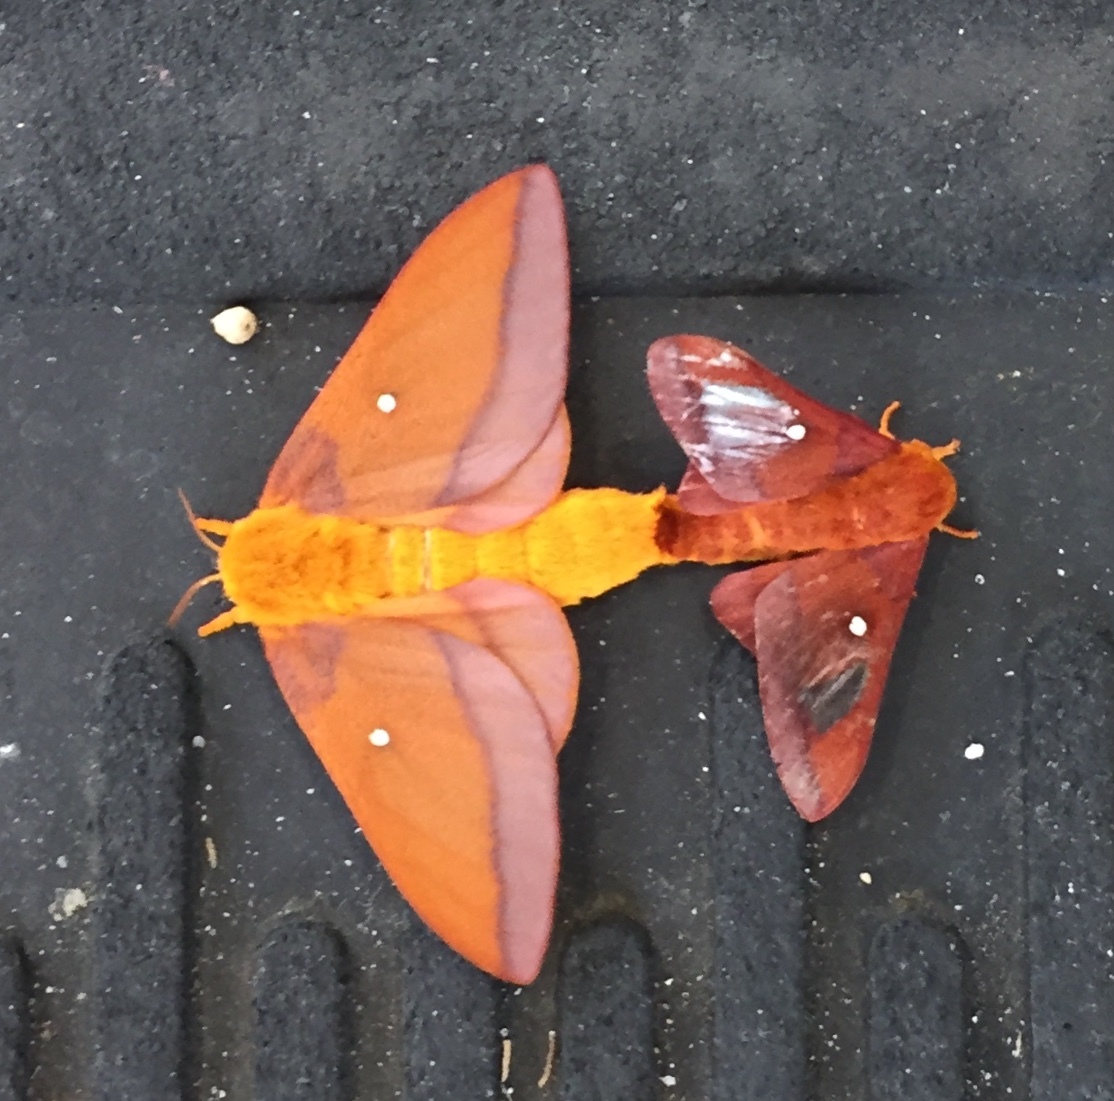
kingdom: Animalia
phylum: Arthropoda
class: Insecta
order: Lepidoptera
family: Saturniidae
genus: Anisota
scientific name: Anisota virginiensis
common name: Pink striped oakworm moth
